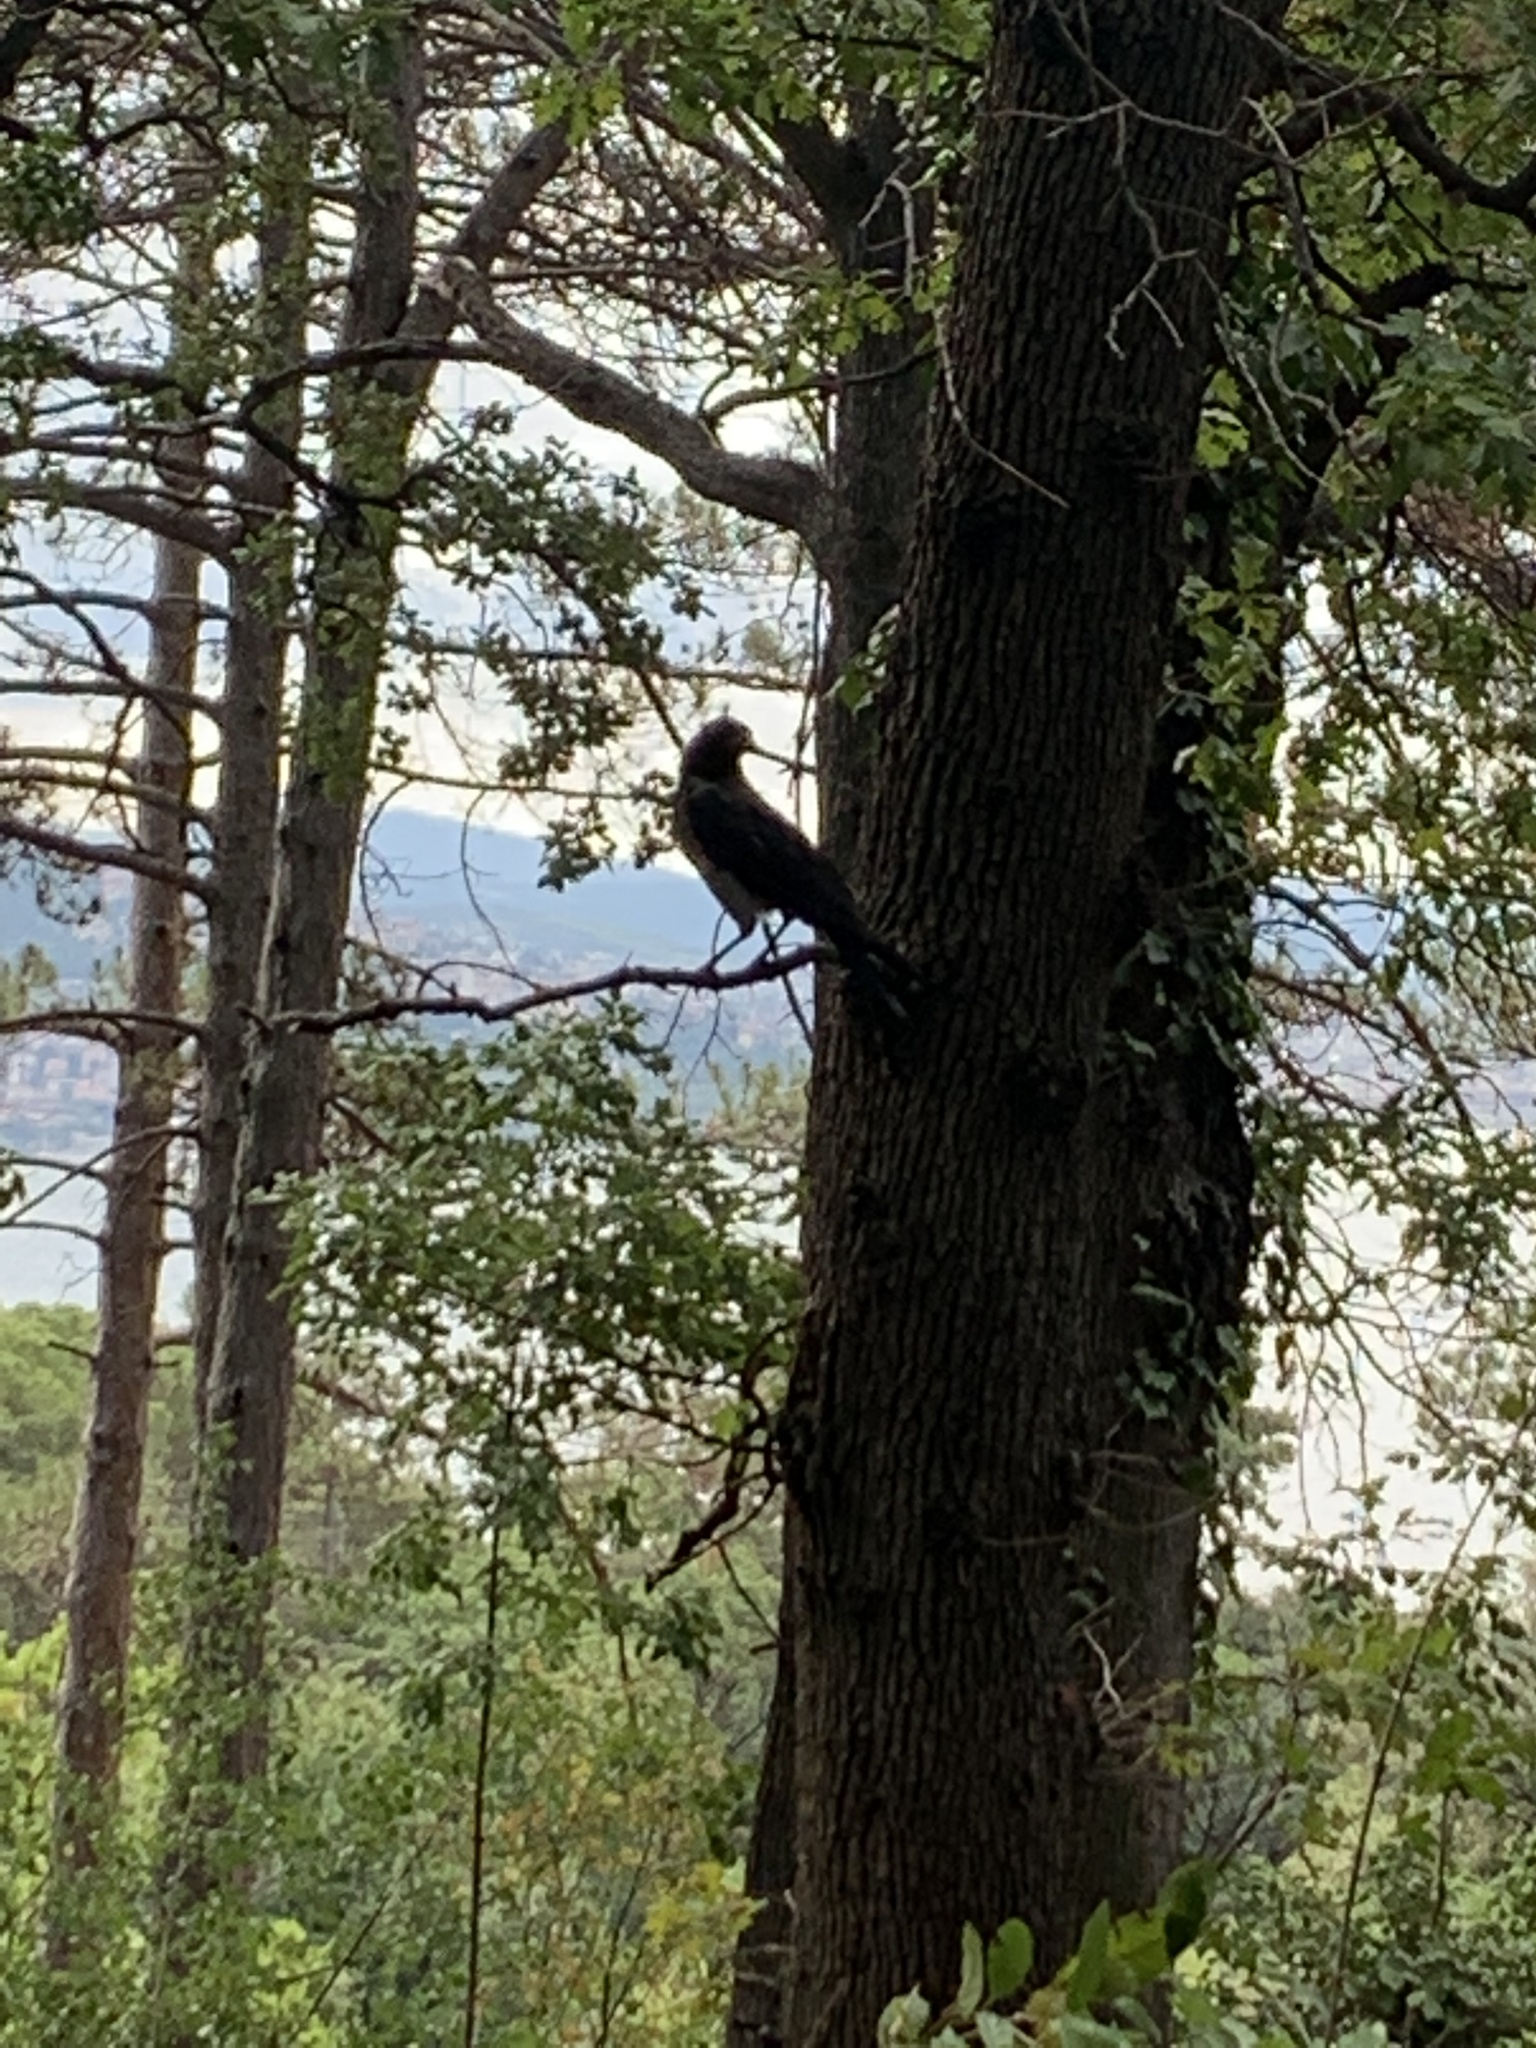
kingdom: Animalia
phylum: Chordata
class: Aves
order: Passeriformes
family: Corvidae
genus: Corvus
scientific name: Corvus cornix
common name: Hooded crow
